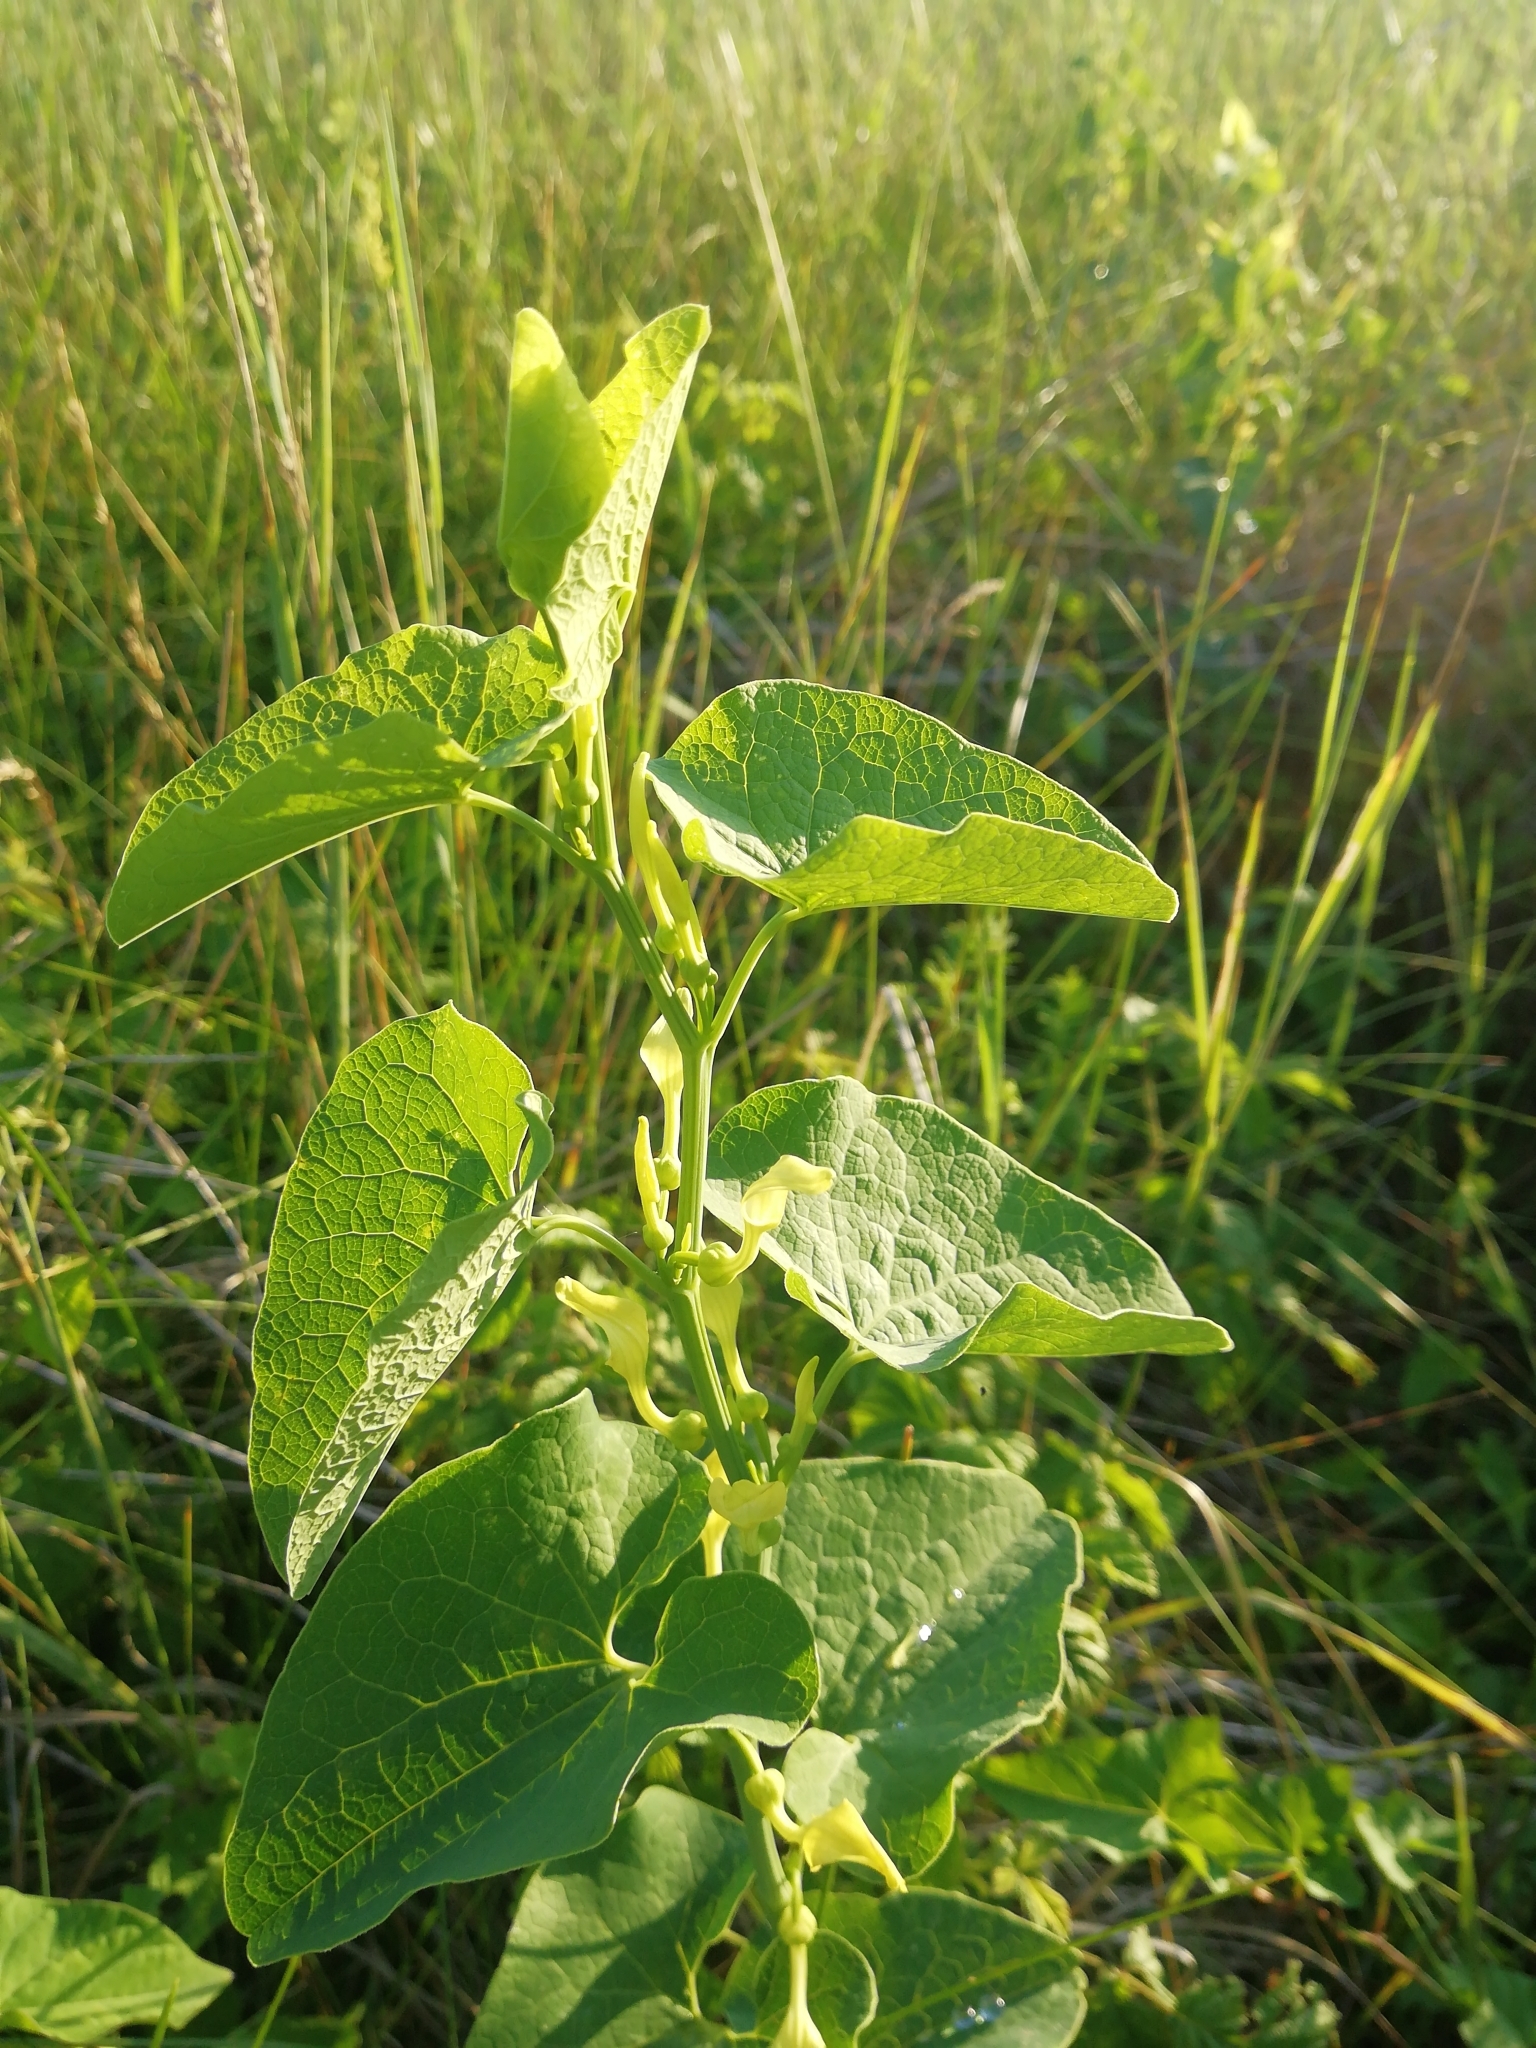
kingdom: Plantae
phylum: Tracheophyta
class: Magnoliopsida
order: Piperales
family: Aristolochiaceae
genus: Aristolochia
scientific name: Aristolochia clematitis
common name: Birthwort
